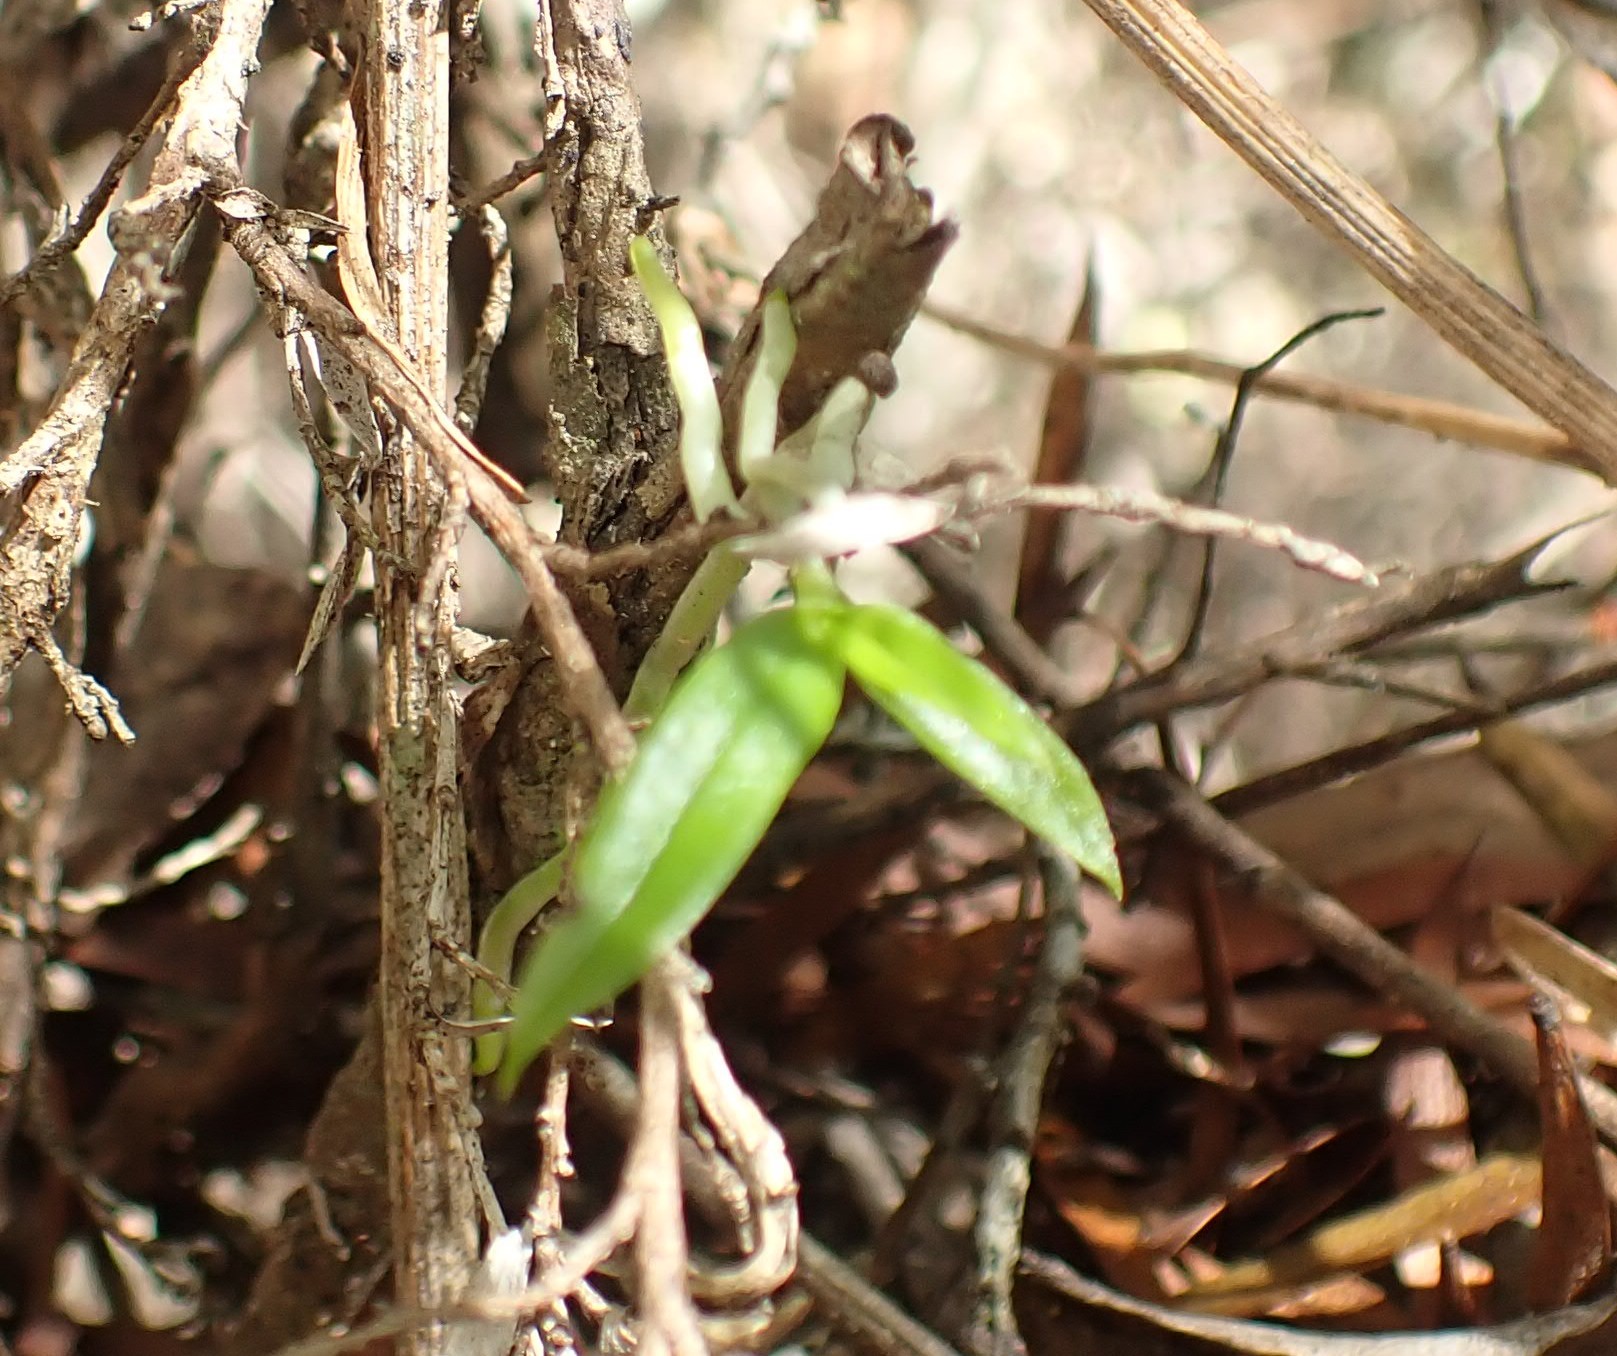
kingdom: Plantae
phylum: Tracheophyta
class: Liliopsida
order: Asparagales
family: Orchidaceae
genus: Sarcochilus
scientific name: Sarcochilus australis
